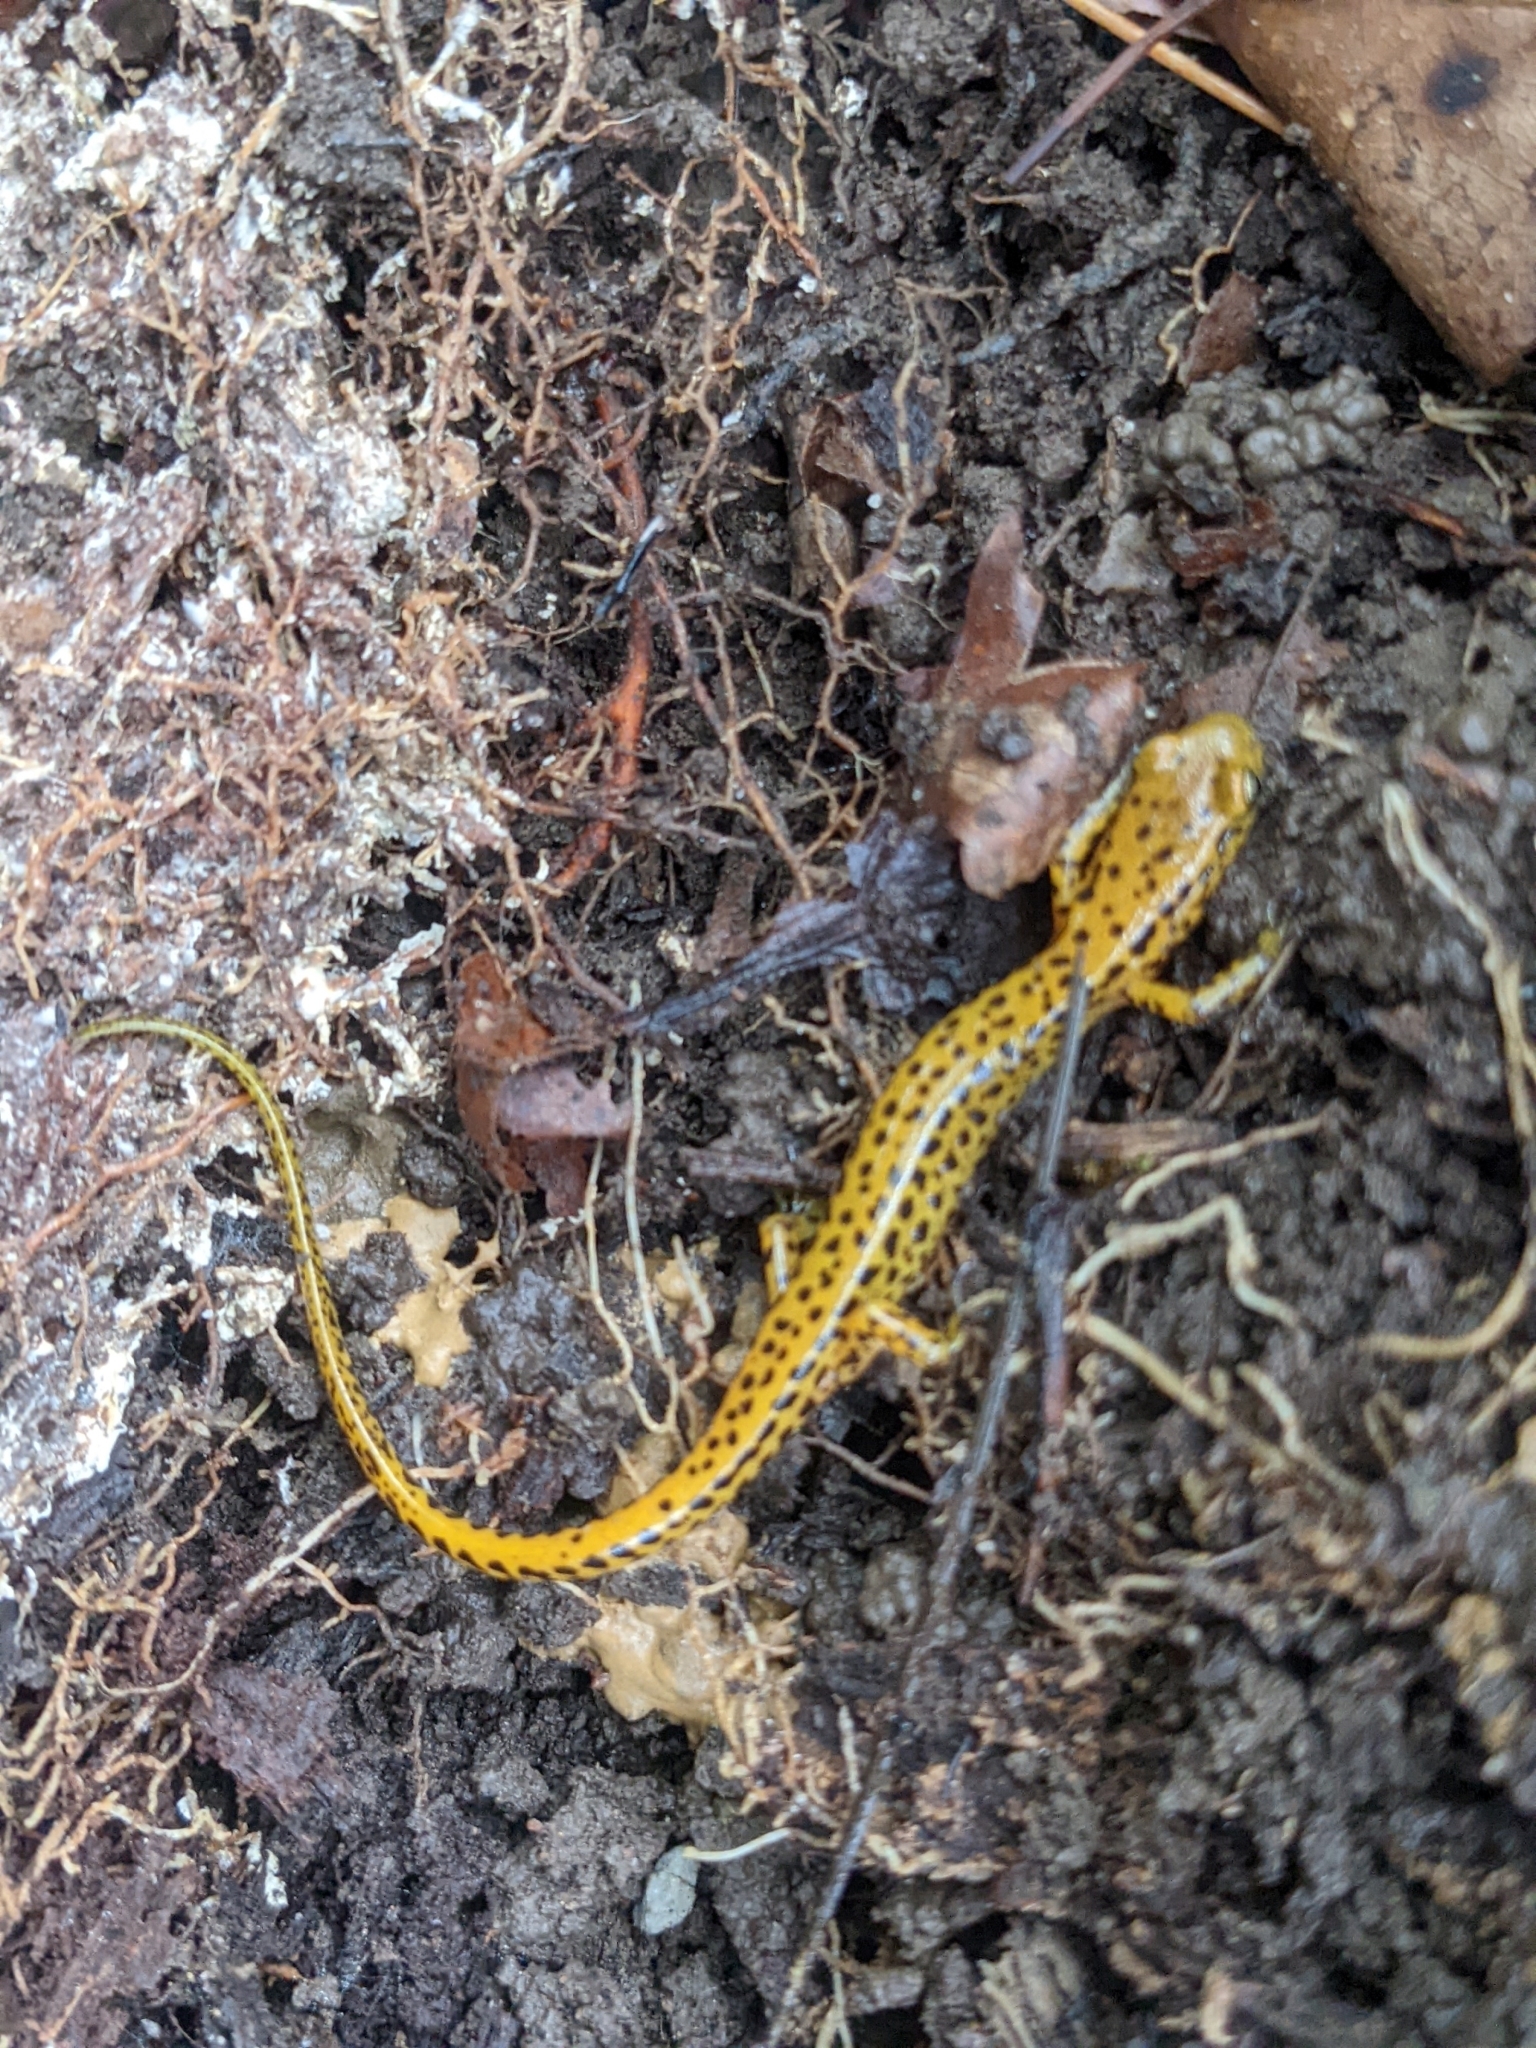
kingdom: Animalia
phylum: Chordata
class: Amphibia
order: Caudata
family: Plethodontidae
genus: Eurycea
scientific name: Eurycea longicauda
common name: Long-tailed salamander
